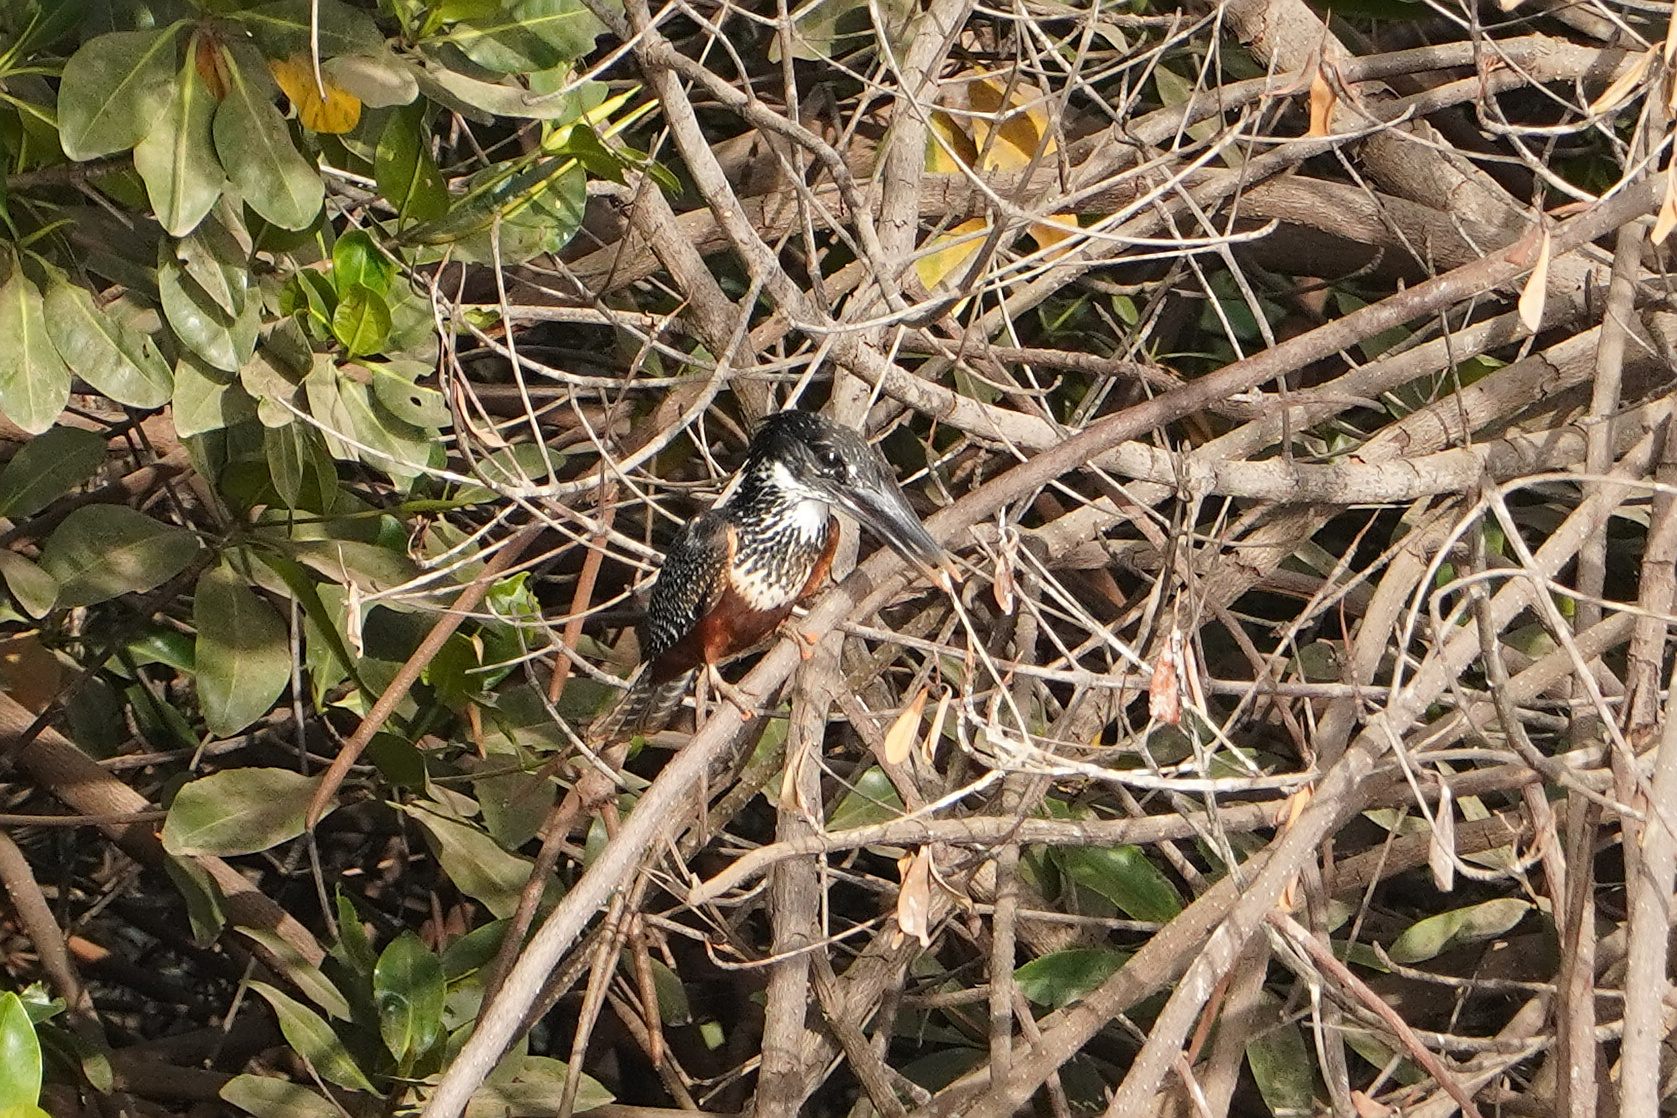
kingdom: Animalia
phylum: Chordata
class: Aves
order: Coraciiformes
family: Alcedinidae
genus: Megaceryle
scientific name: Megaceryle maxima
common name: Giant kingfisher
